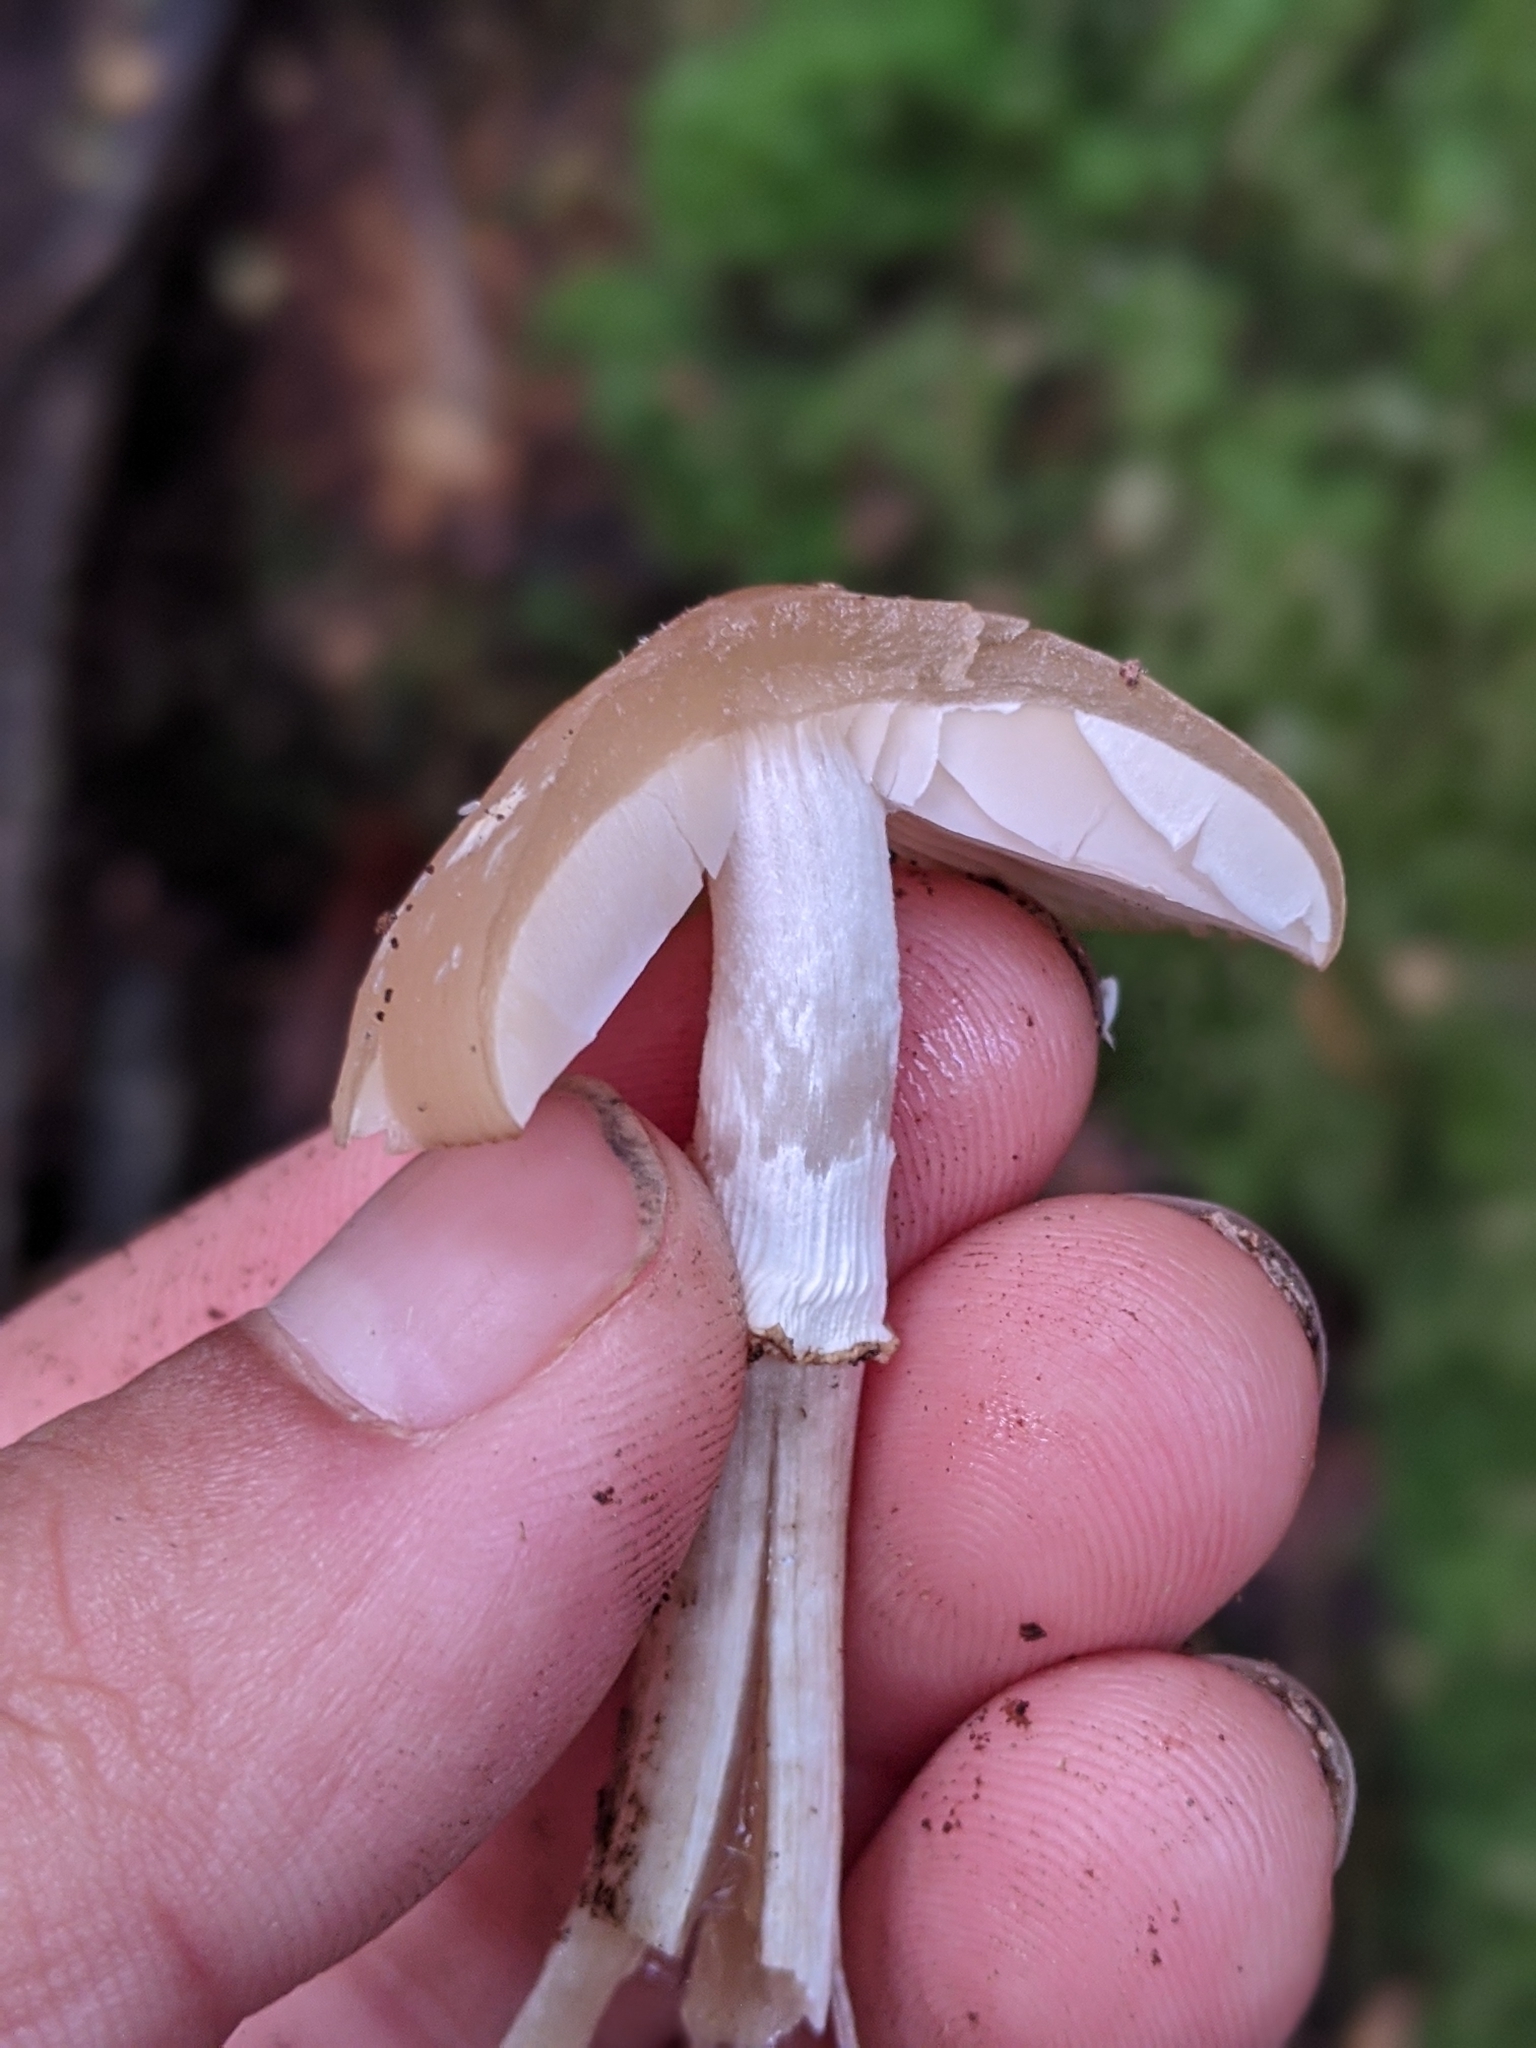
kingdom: Fungi
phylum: Basidiomycota
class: Agaricomycetes
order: Agaricales
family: Psathyrellaceae
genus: Psathyrella
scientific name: Psathyrella longistriata
